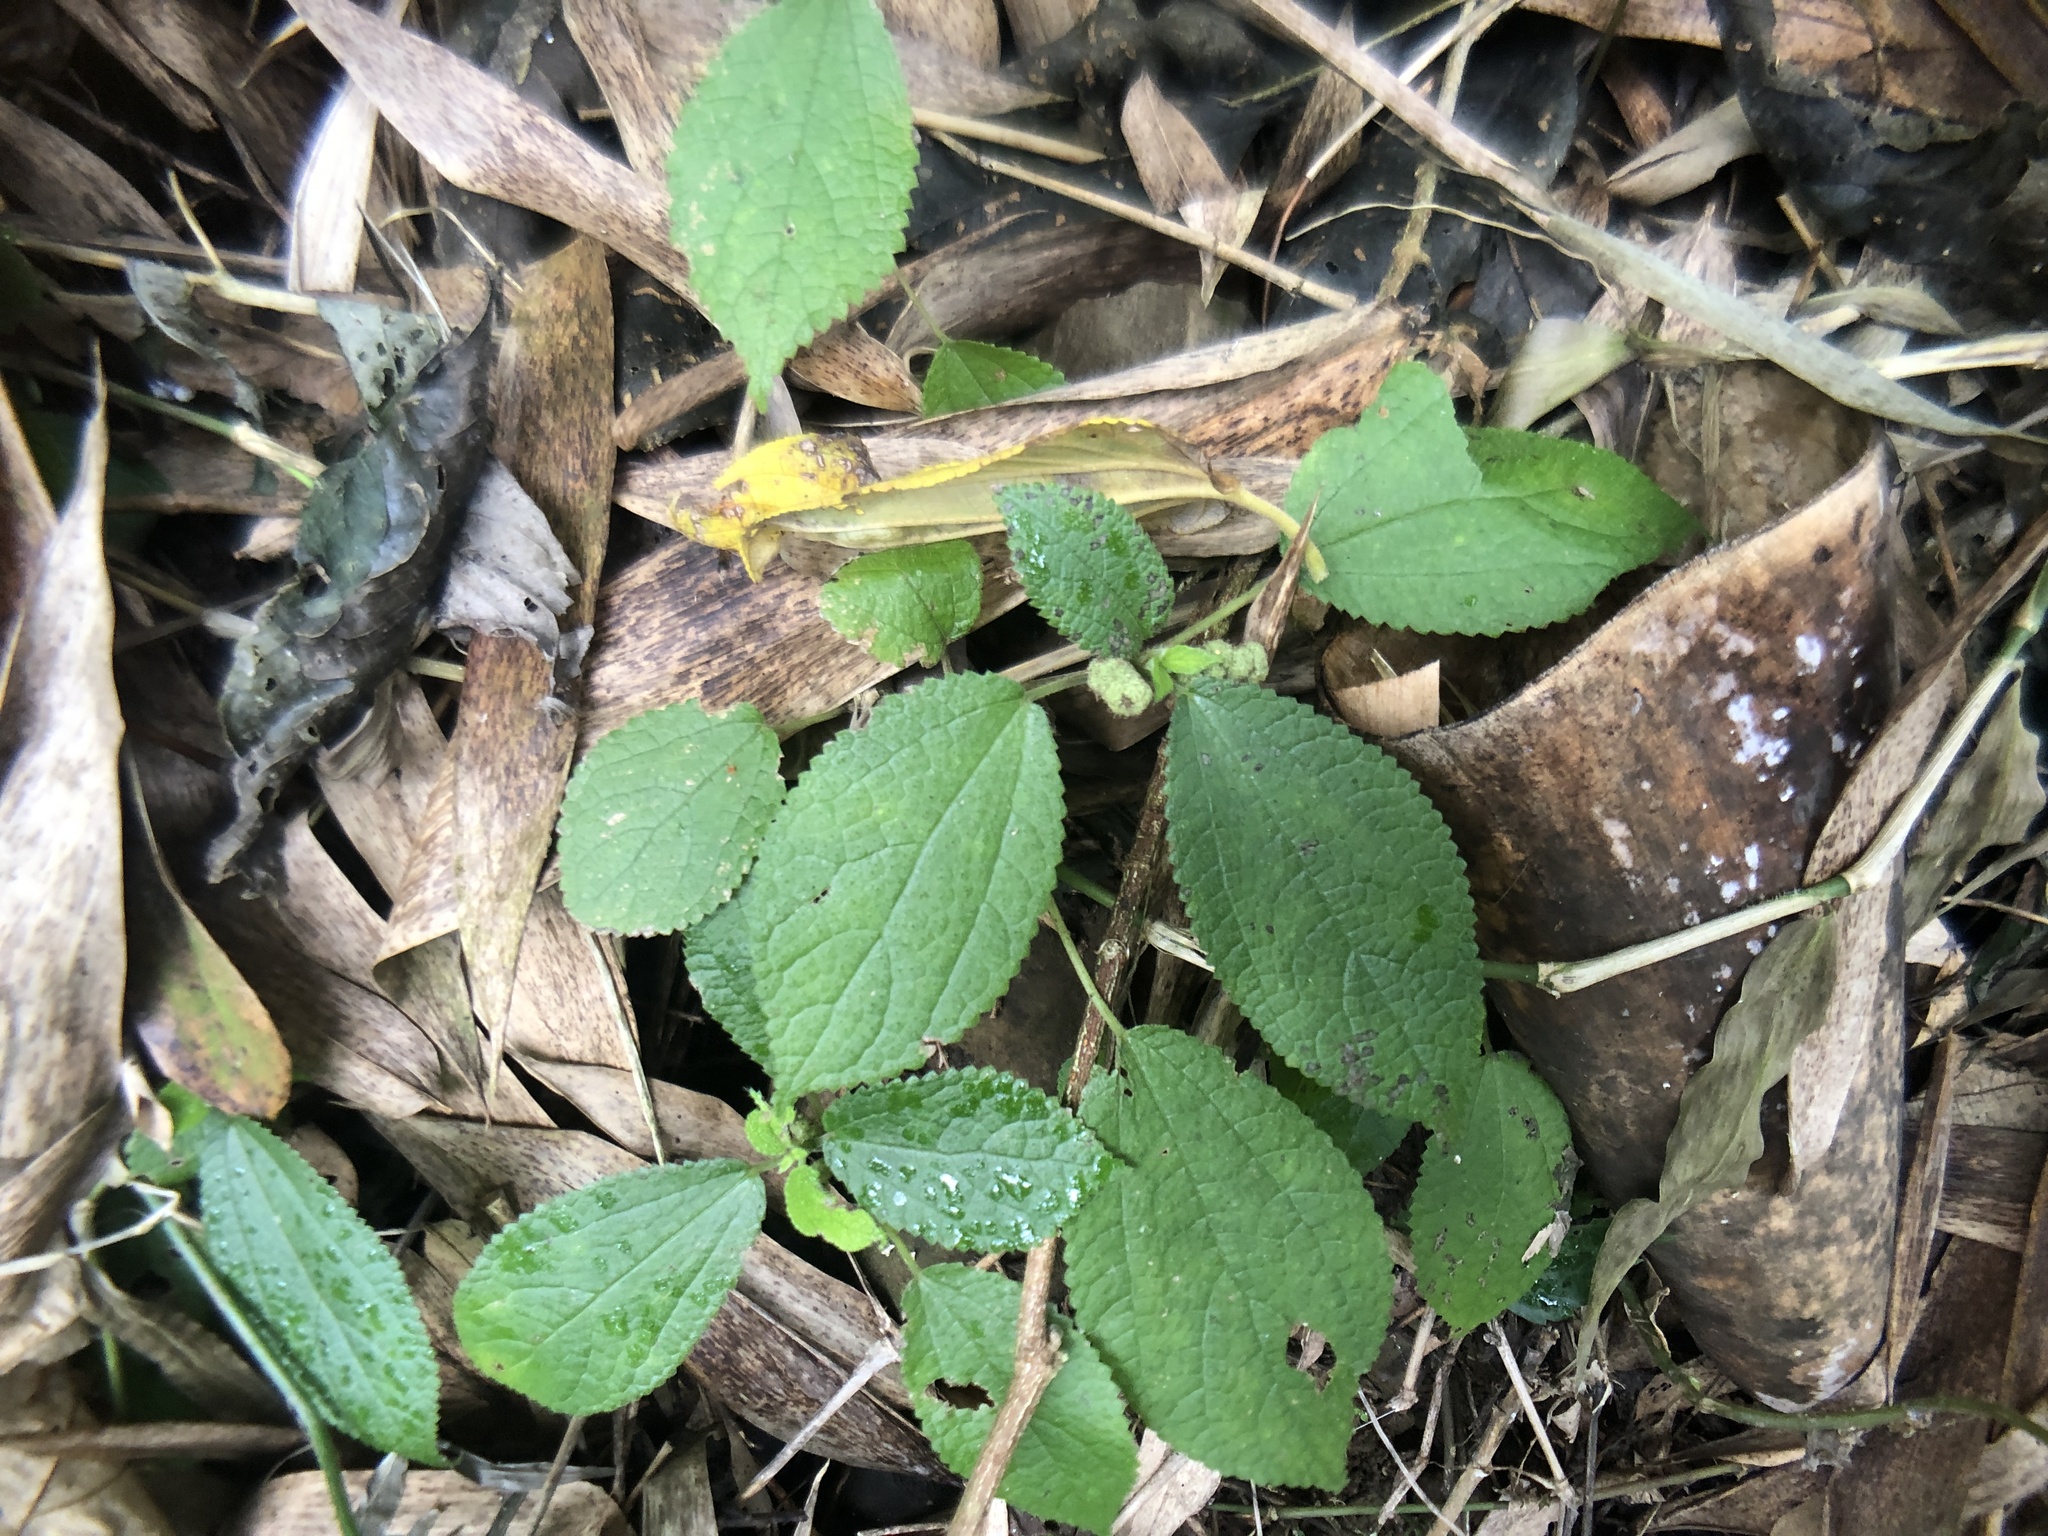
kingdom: Plantae
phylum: Tracheophyta
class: Magnoliopsida
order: Rosales
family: Urticaceae
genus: Boehmeria
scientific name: Boehmeria pilosiuscula
